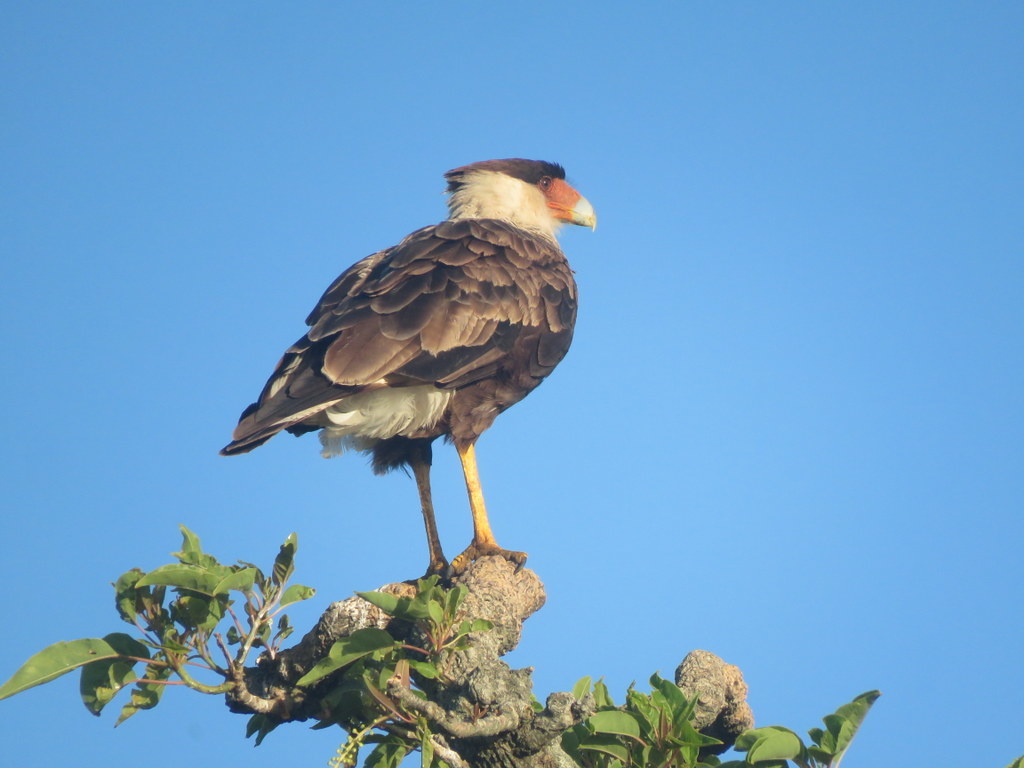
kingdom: Animalia
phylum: Chordata
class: Aves
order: Falconiformes
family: Falconidae
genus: Caracara
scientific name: Caracara plancus
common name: Southern caracara
